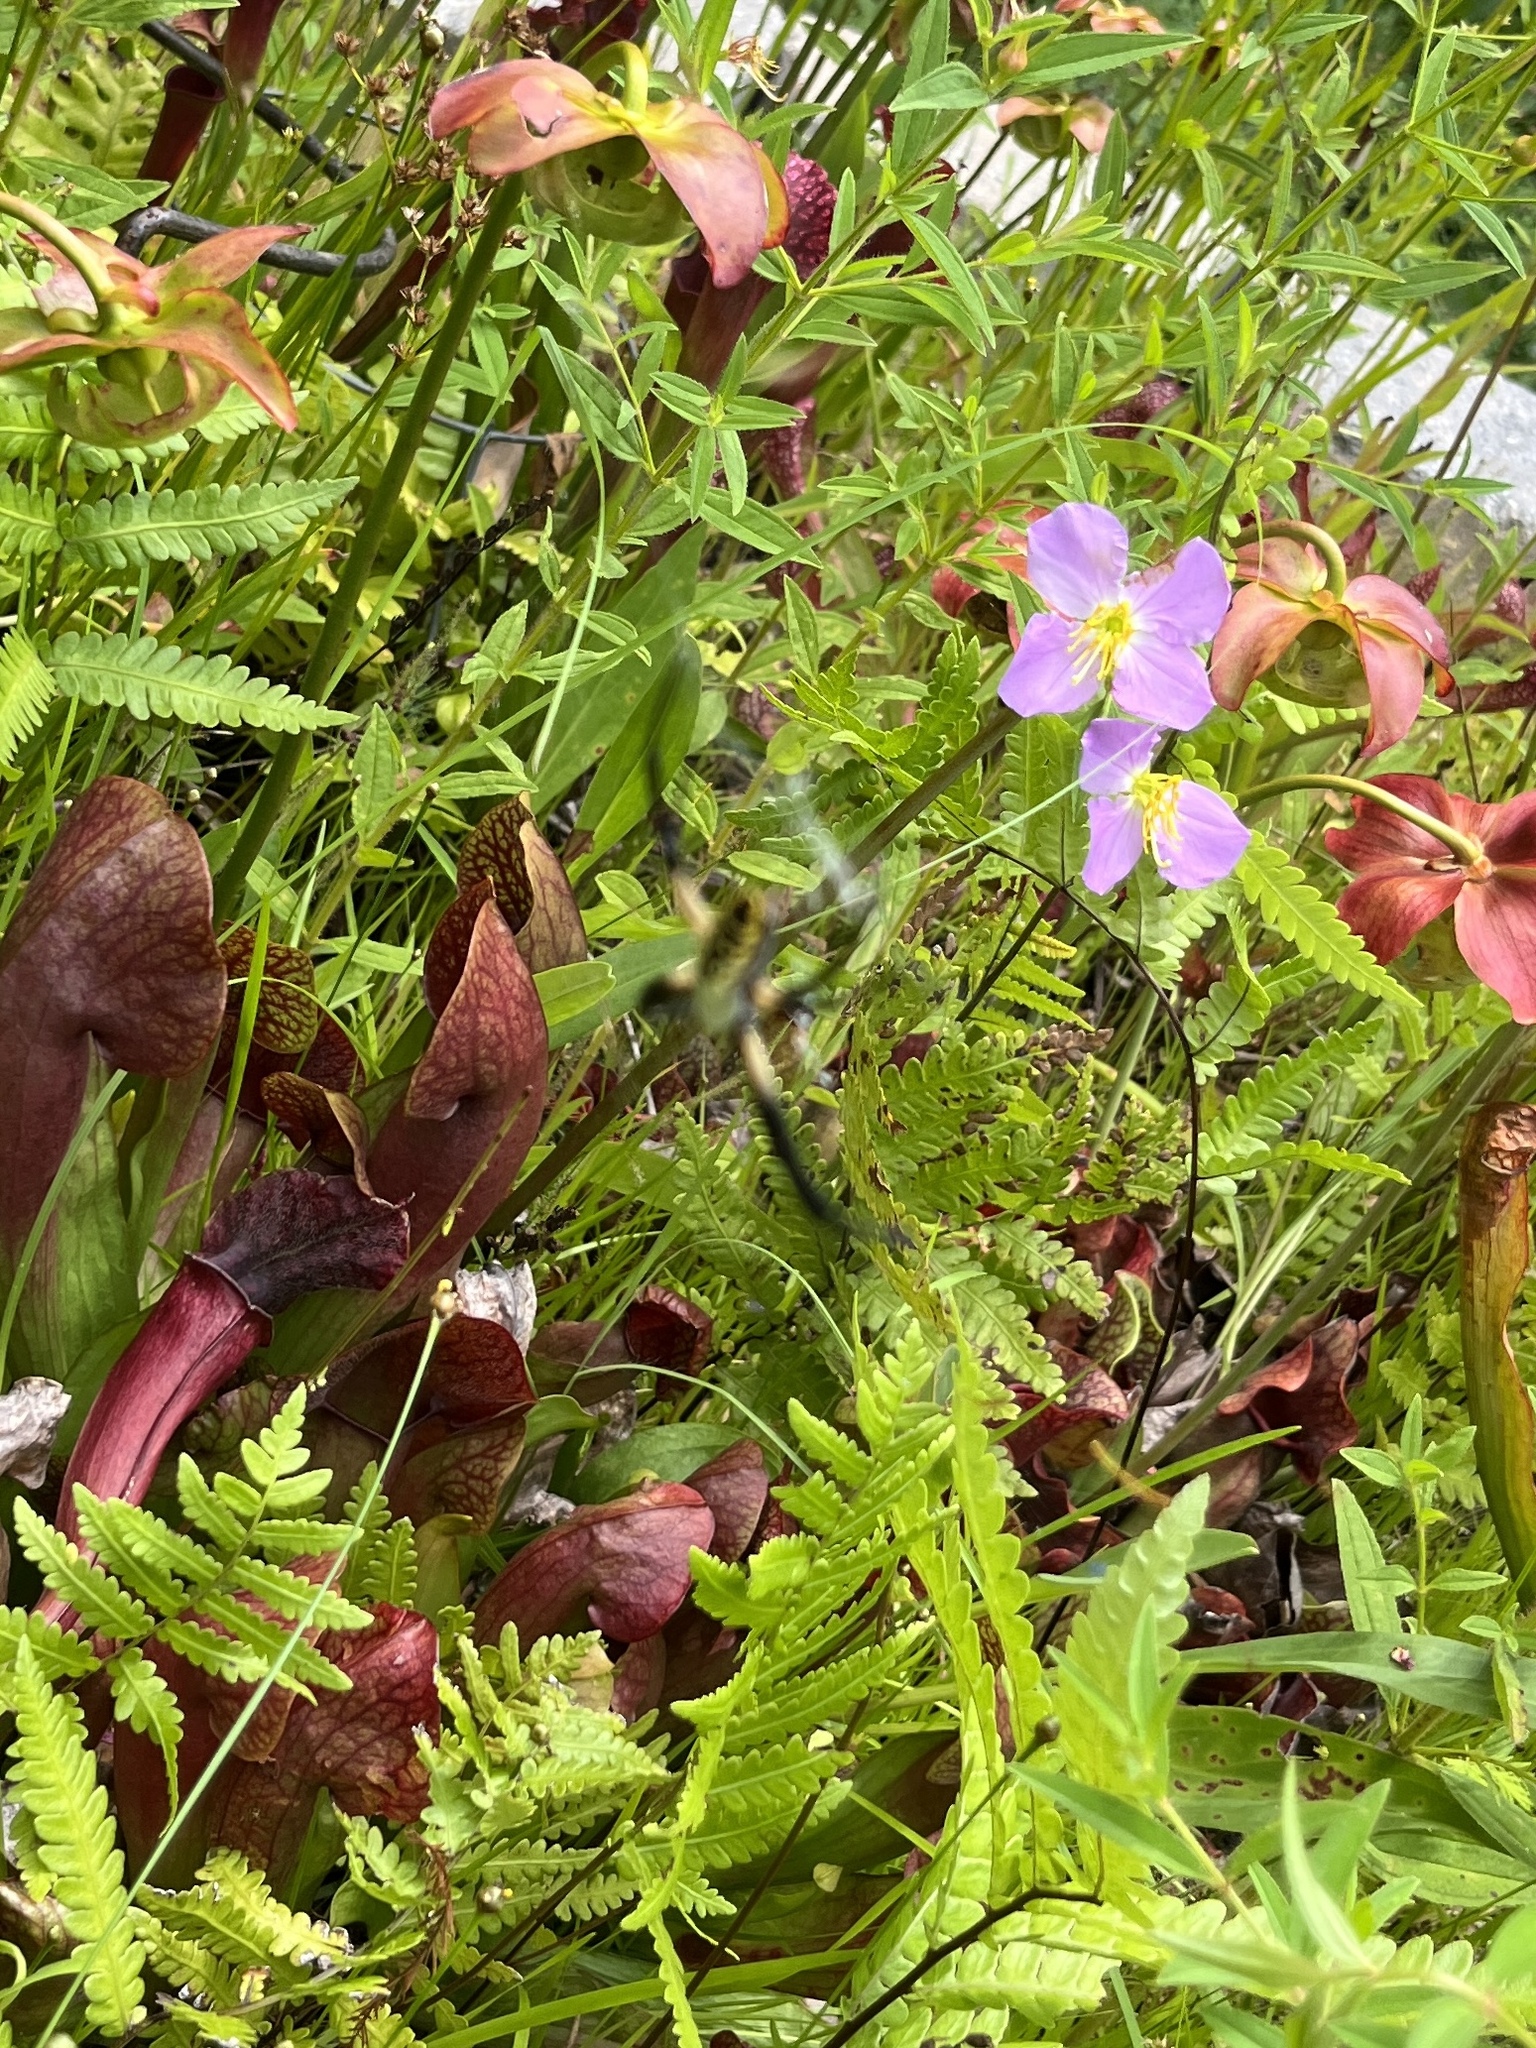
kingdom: Animalia
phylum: Arthropoda
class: Arachnida
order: Araneae
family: Araneidae
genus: Argiope
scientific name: Argiope aurantia
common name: Orb weavers
